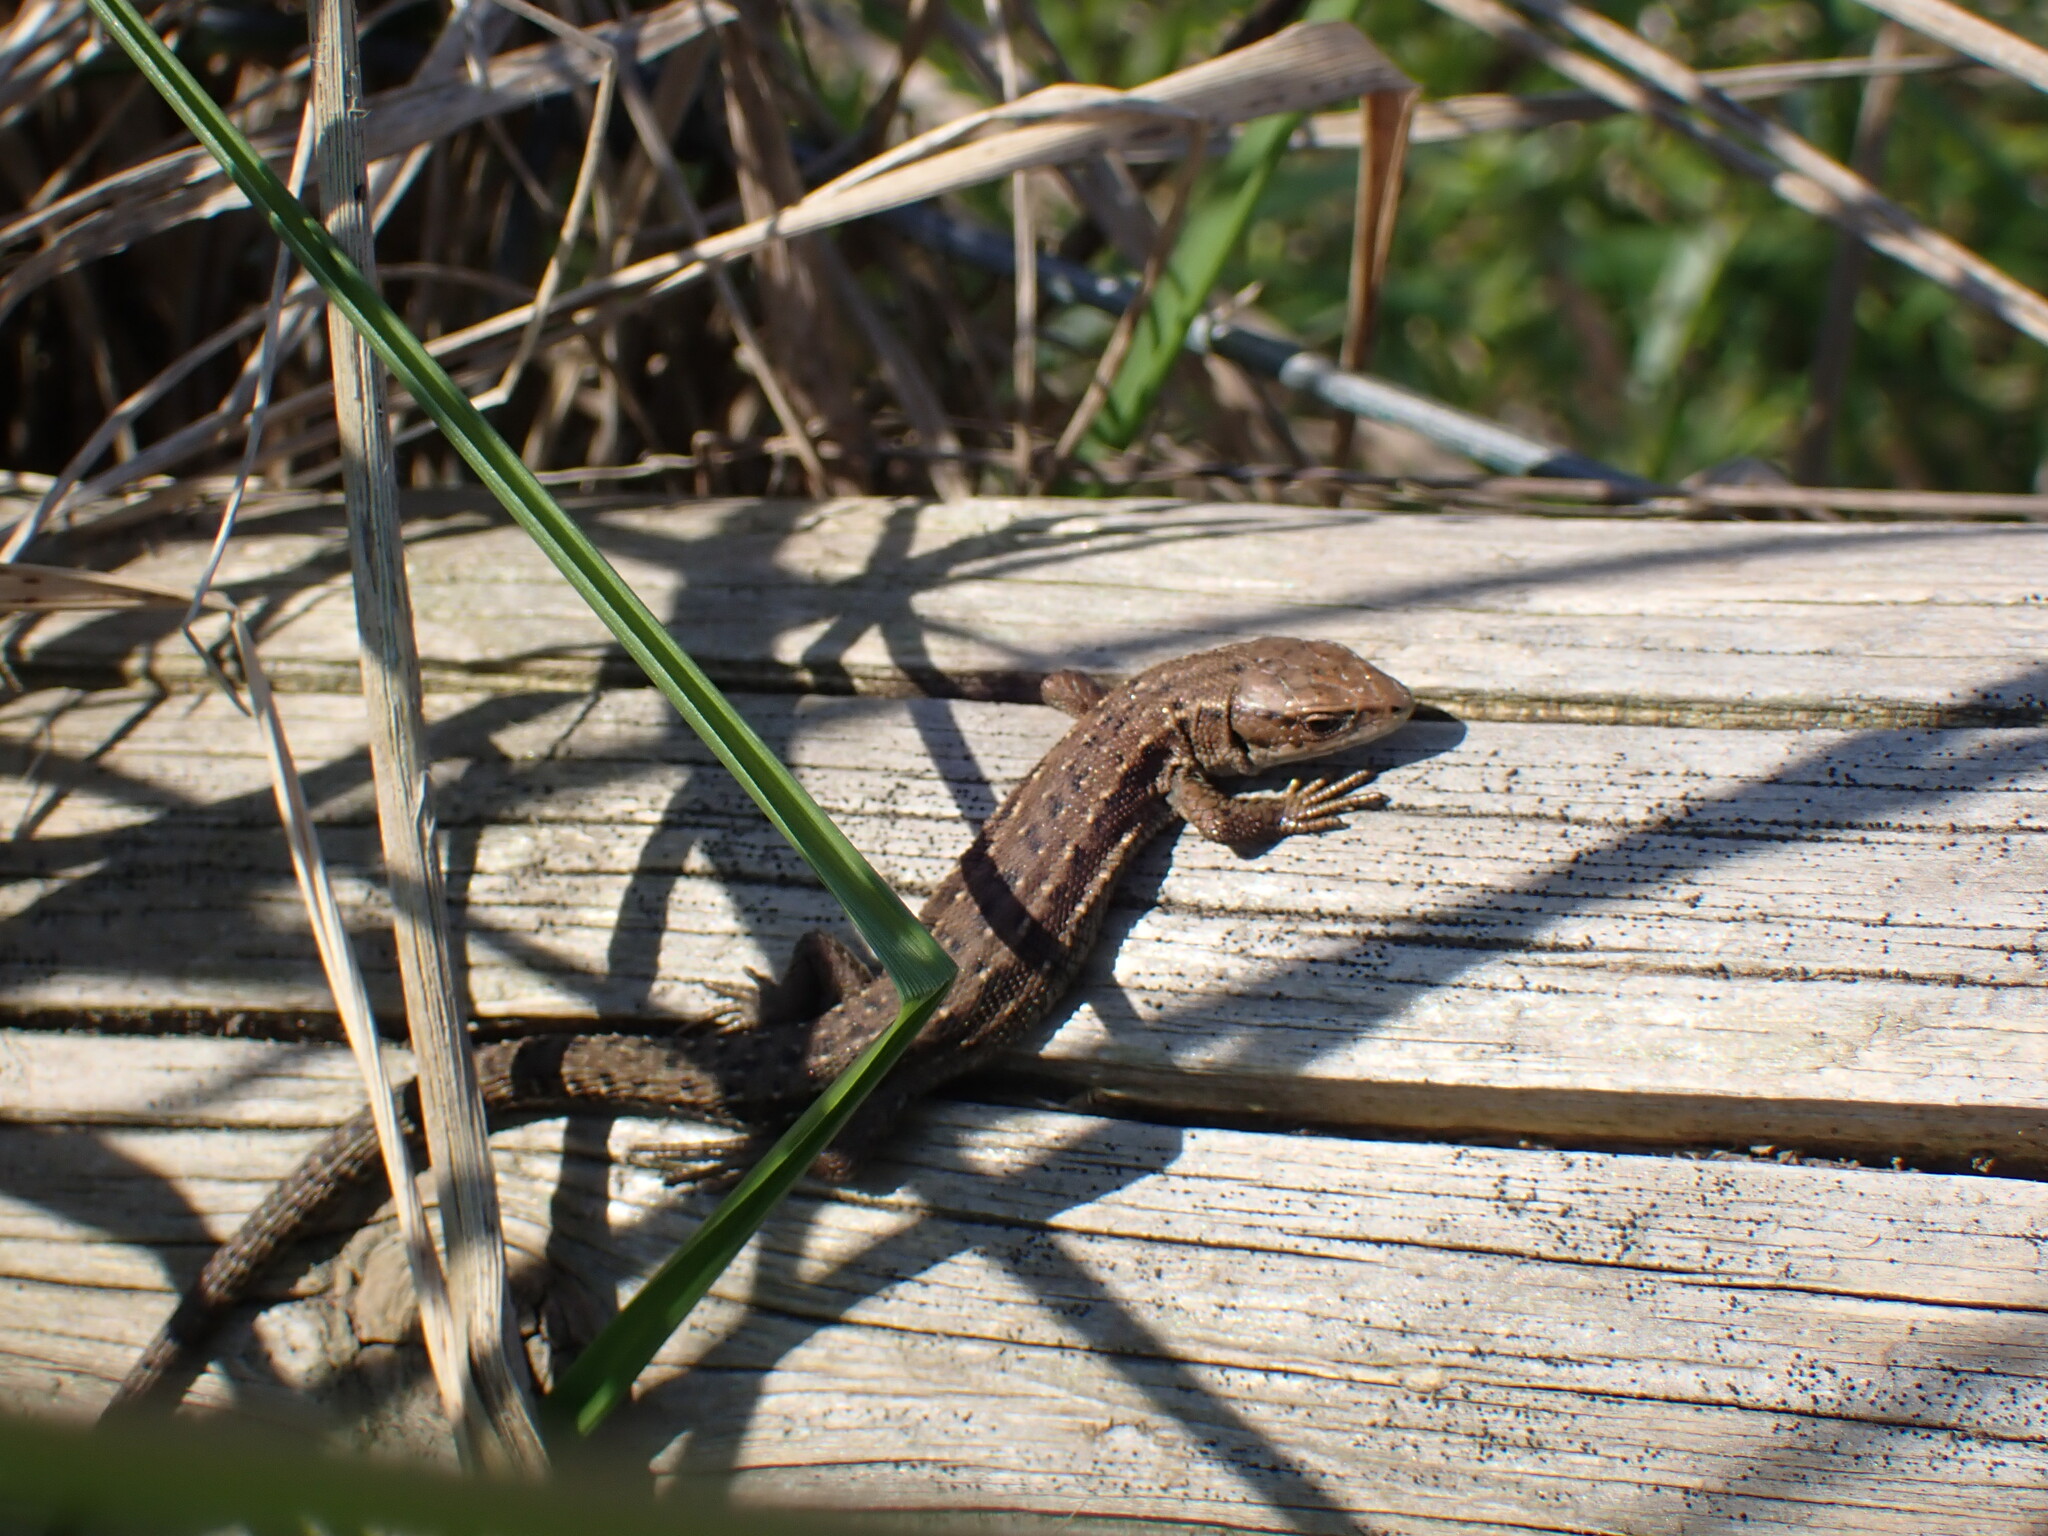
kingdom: Animalia
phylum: Chordata
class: Squamata
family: Lacertidae
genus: Zootoca
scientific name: Zootoca vivipara
